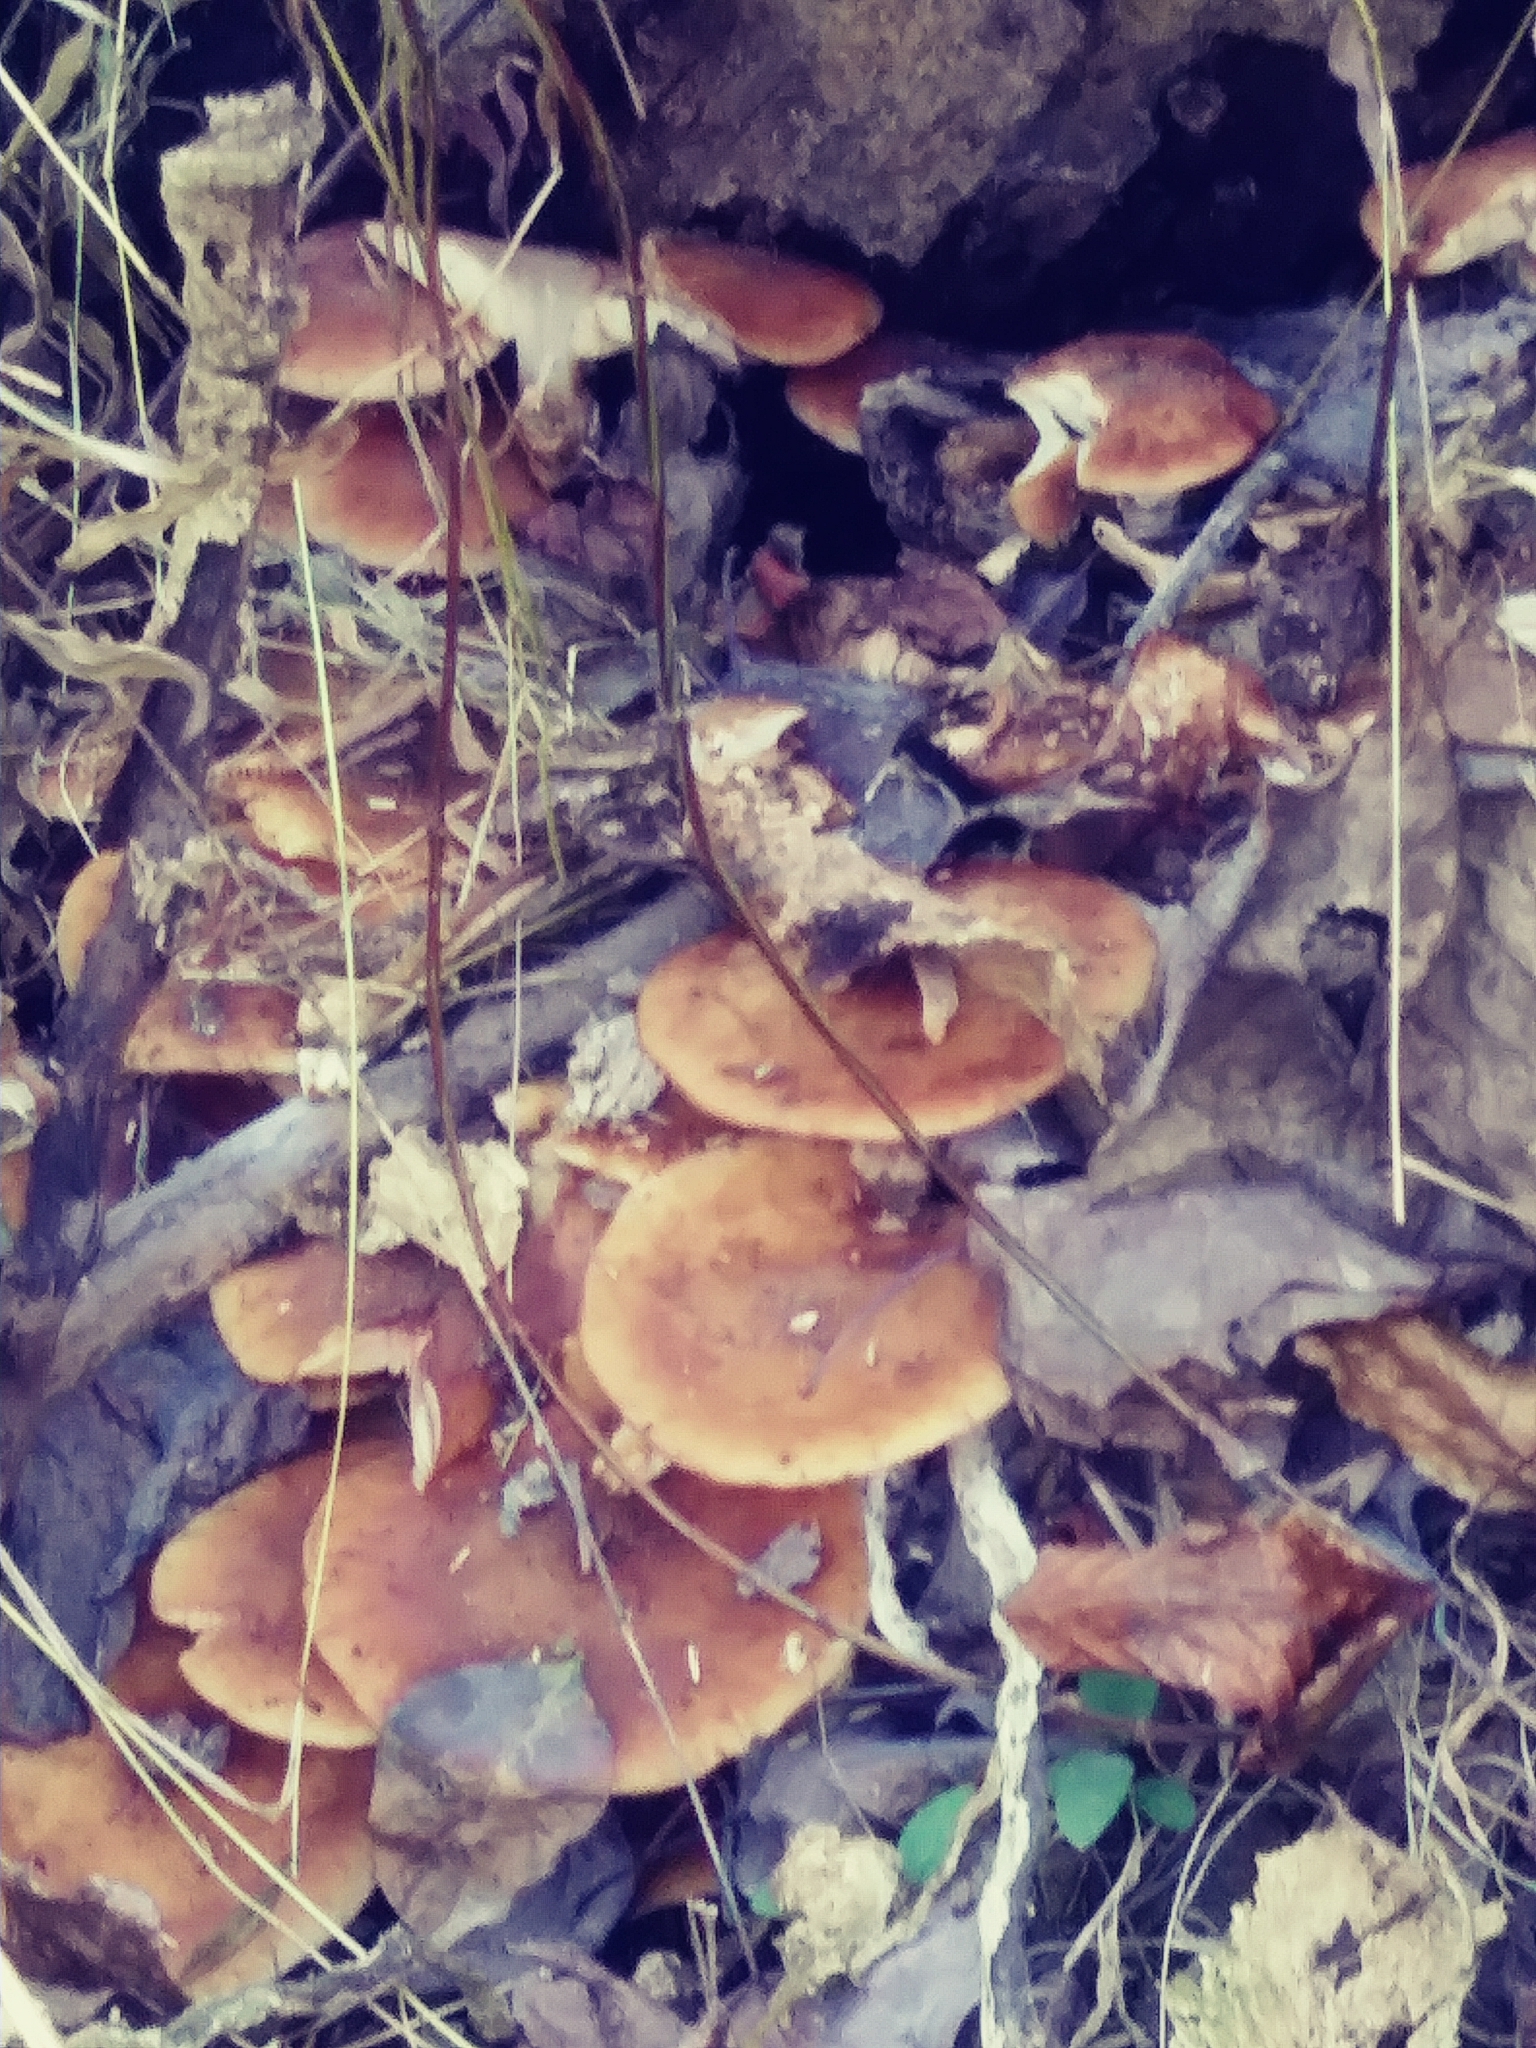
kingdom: Fungi
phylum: Basidiomycota
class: Agaricomycetes
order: Agaricales
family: Physalacriaceae
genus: Armillaria
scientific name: Armillaria gallica
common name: Bulbous honey fungus
